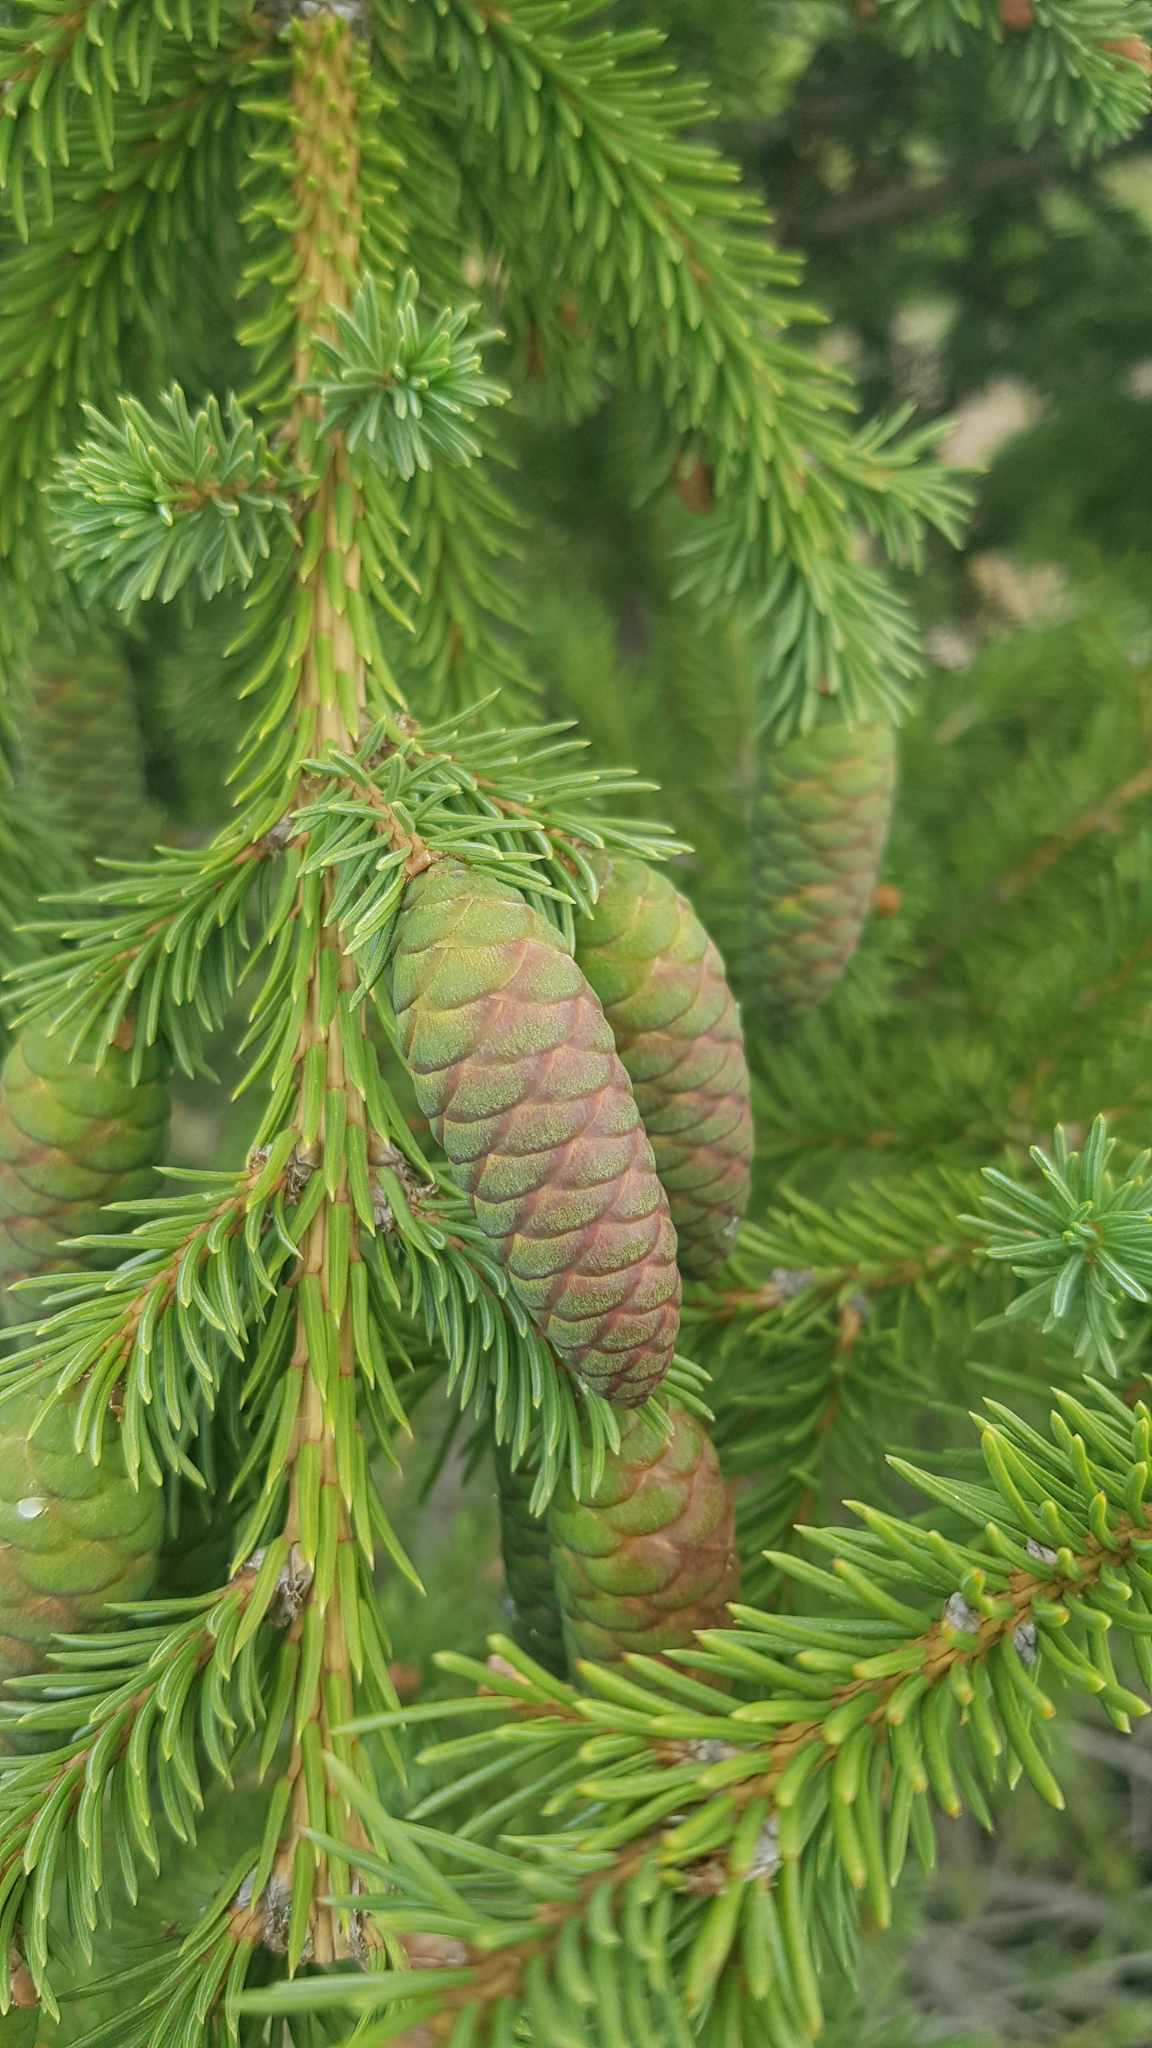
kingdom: Plantae
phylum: Tracheophyta
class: Pinopsida
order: Pinales
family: Pinaceae
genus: Picea
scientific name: Picea obovata
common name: Siberian spruce
